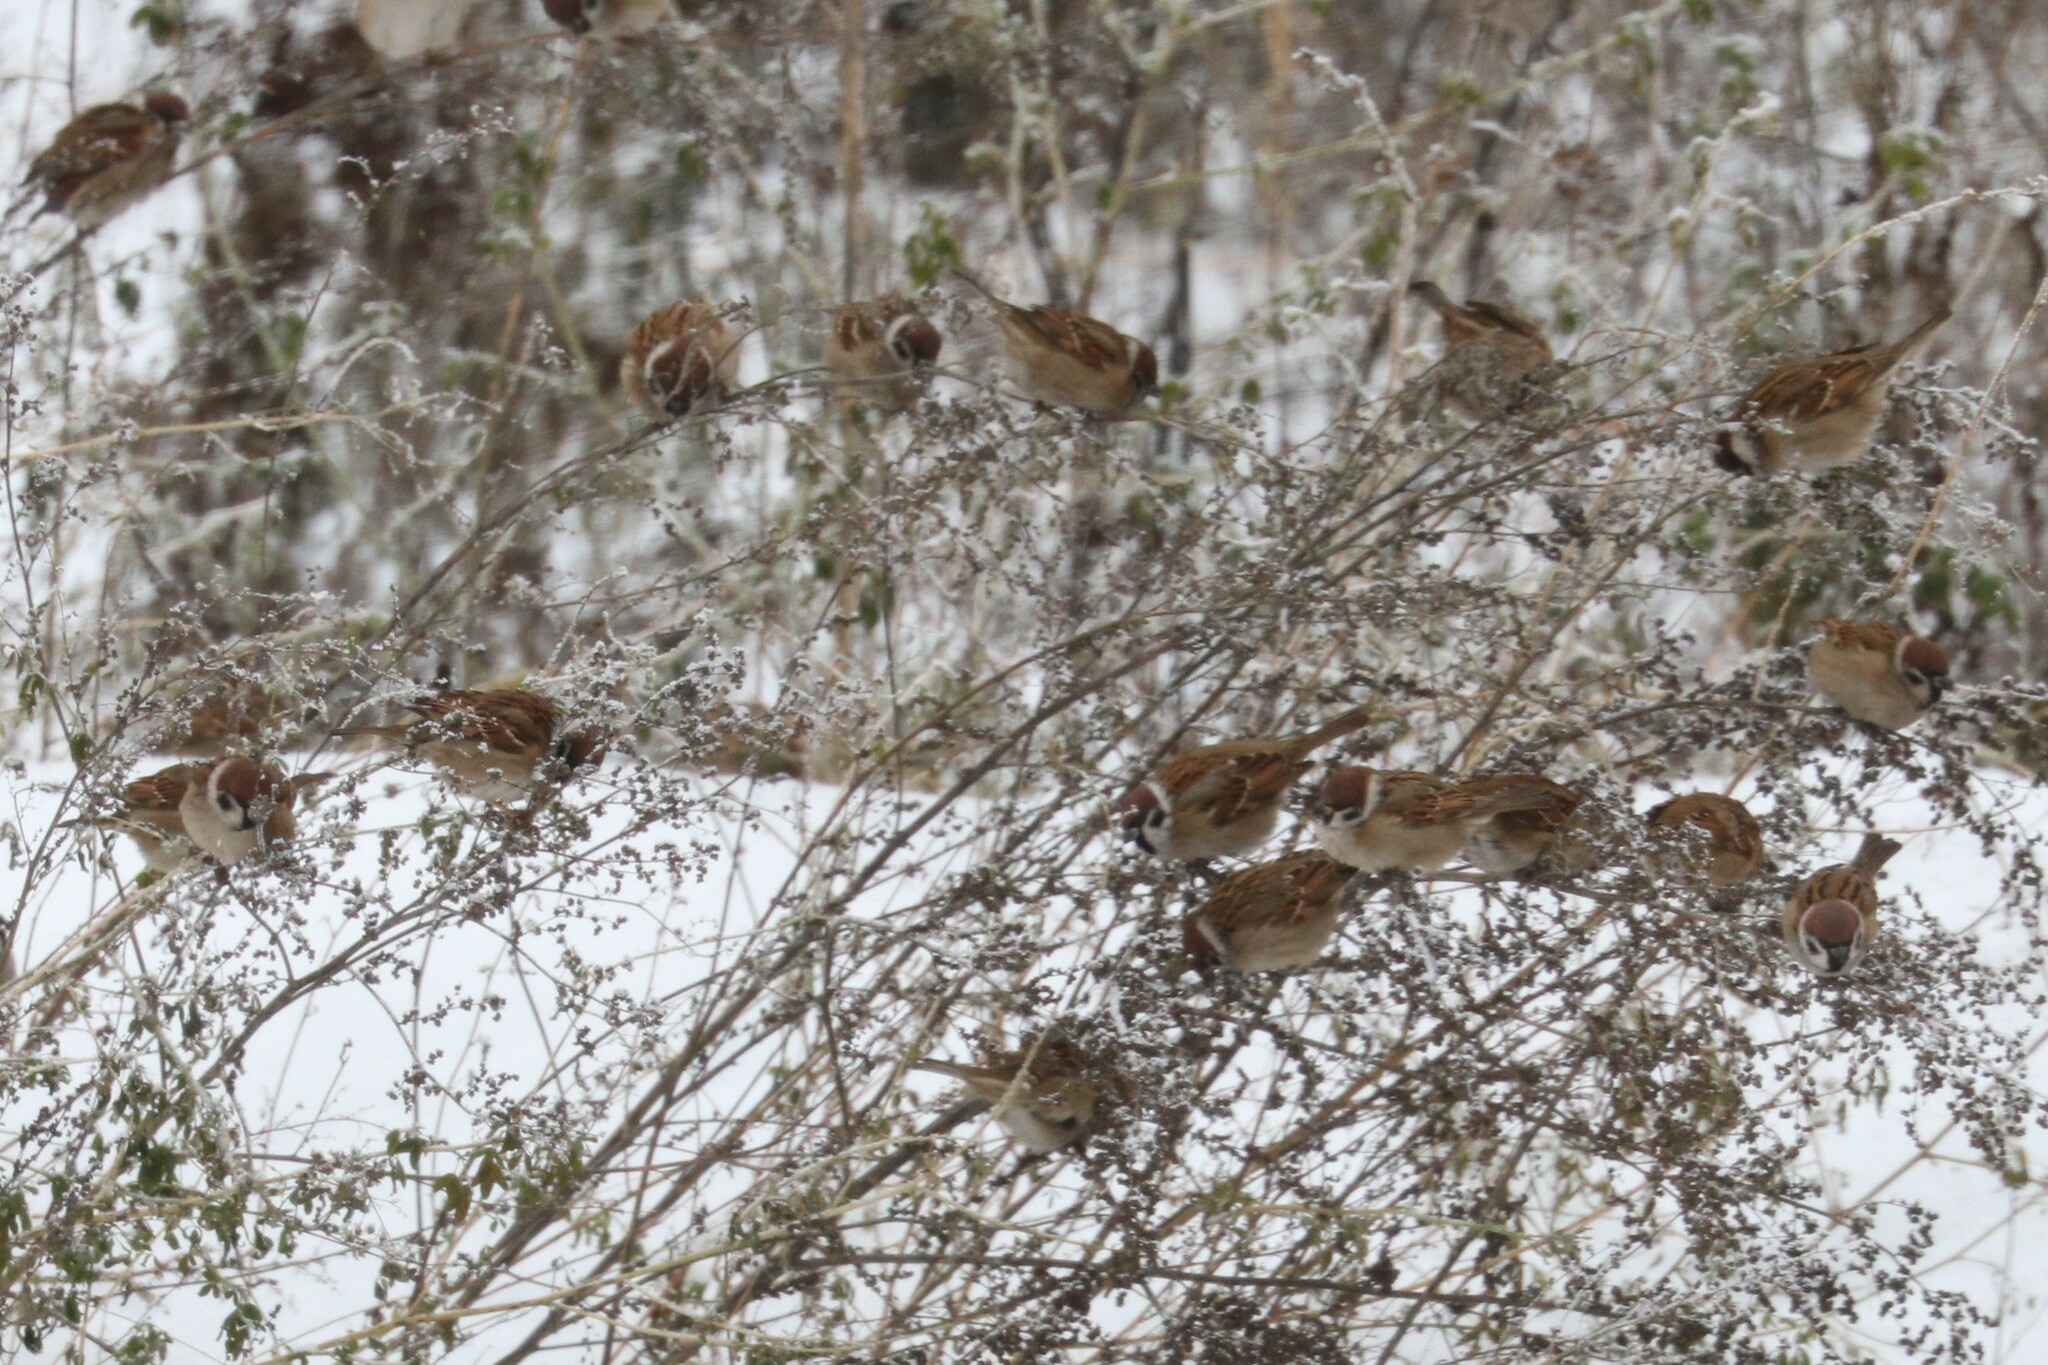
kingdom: Animalia
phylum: Chordata
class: Aves
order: Passeriformes
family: Passeridae
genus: Passer
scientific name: Passer montanus
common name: Eurasian tree sparrow
